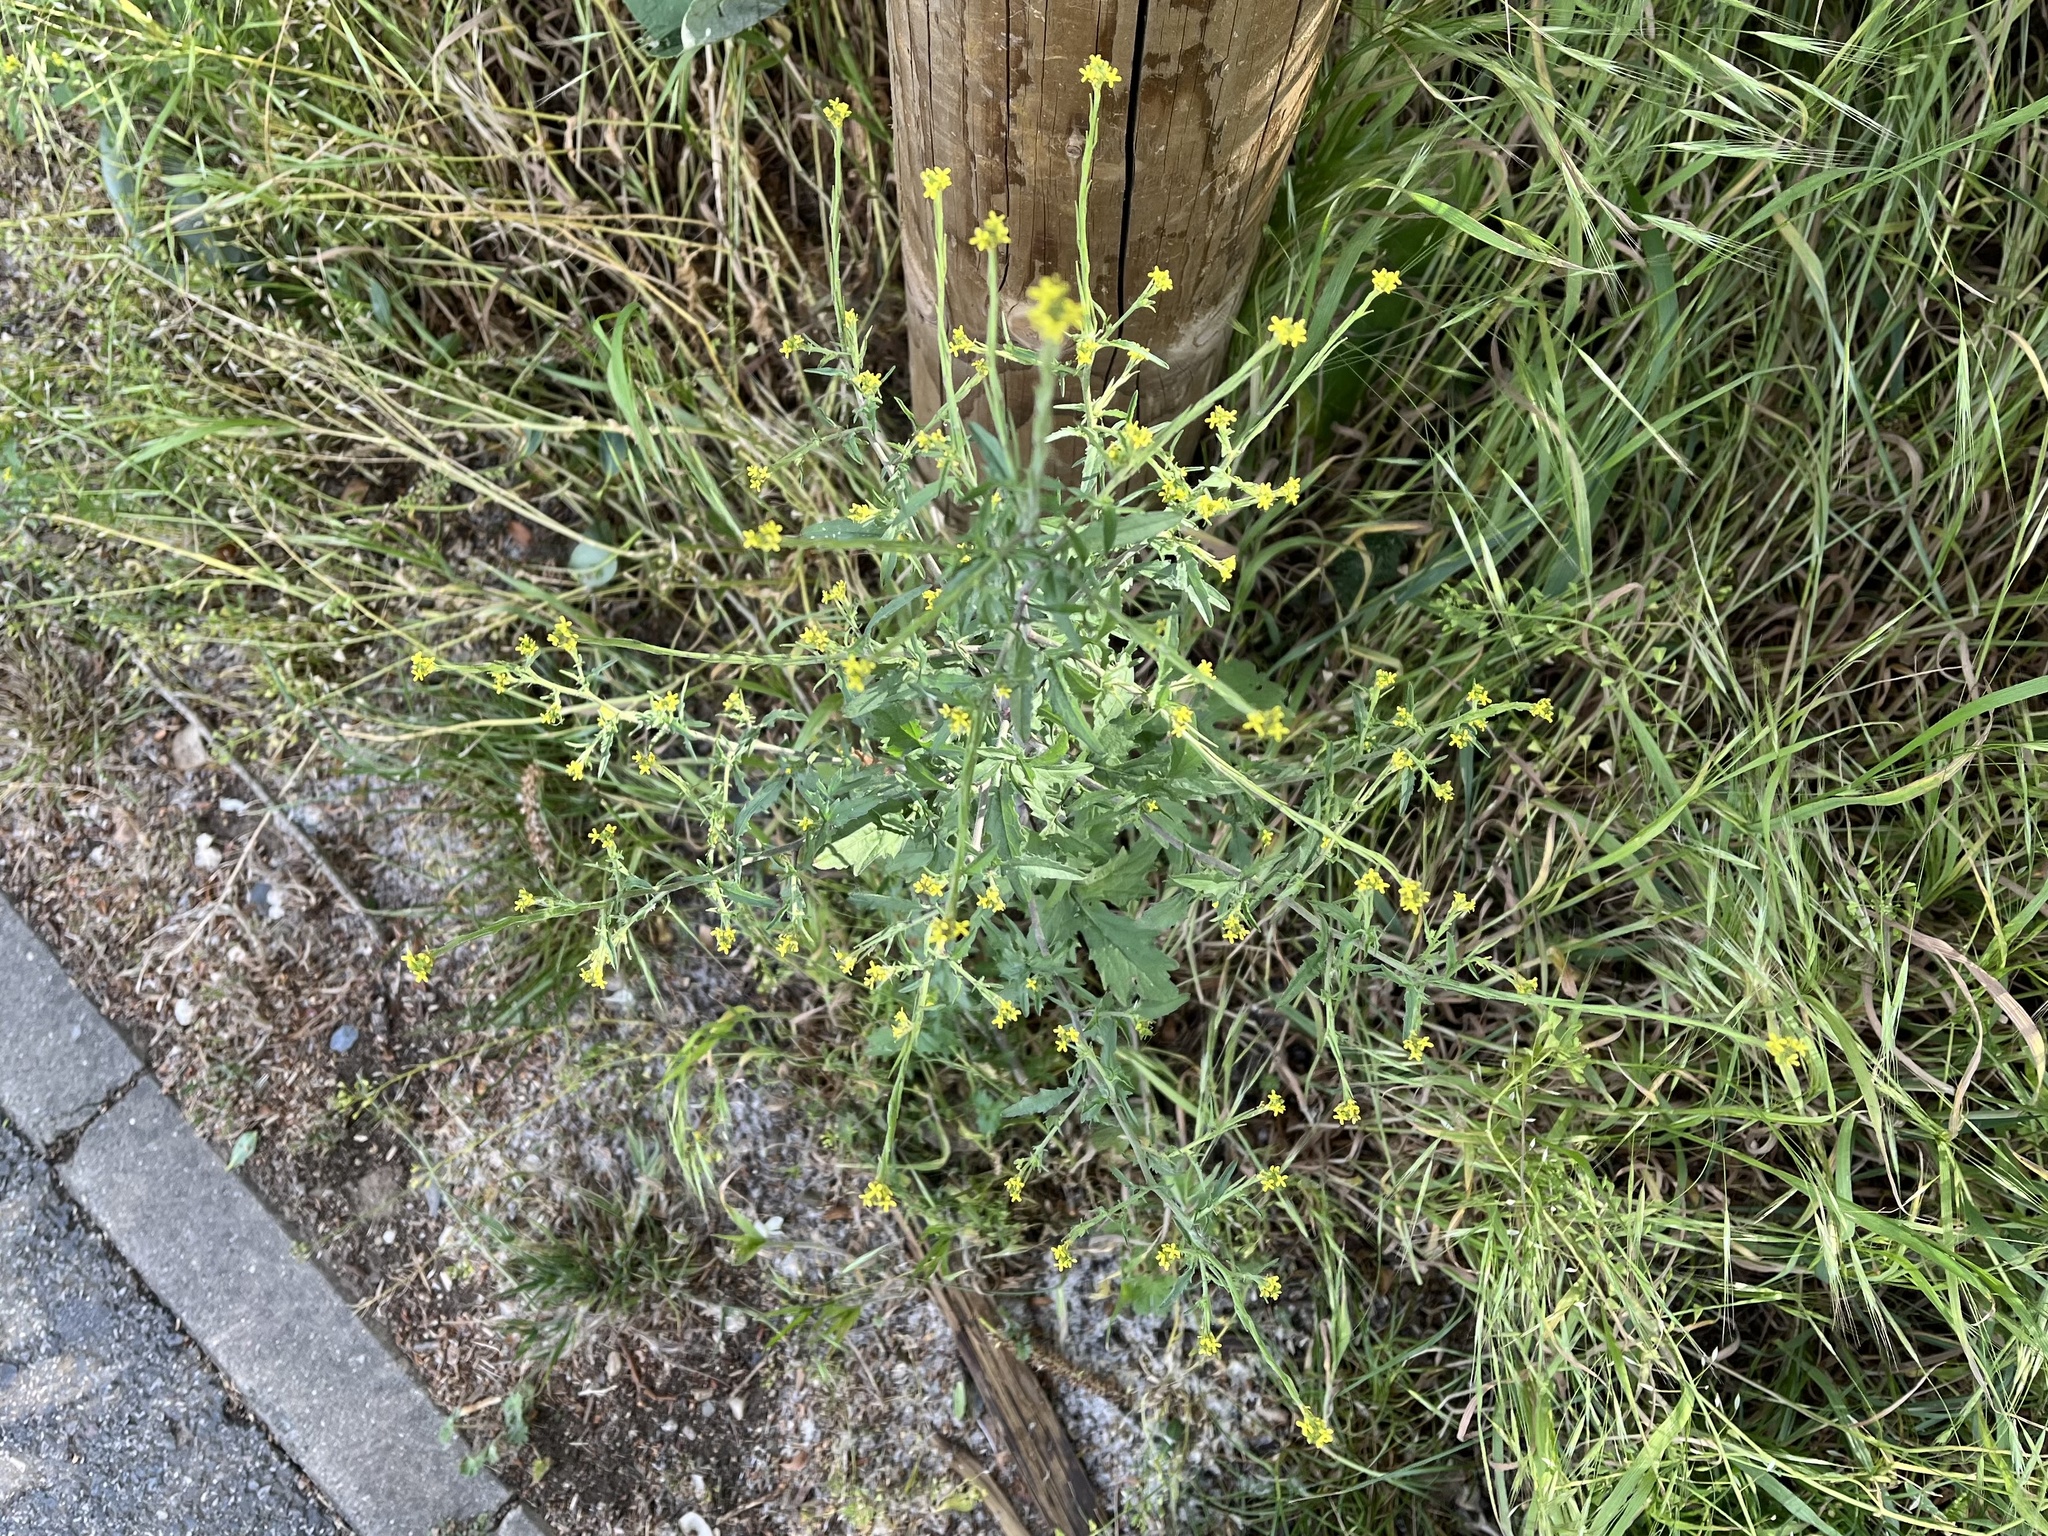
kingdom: Plantae
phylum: Tracheophyta
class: Magnoliopsida
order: Brassicales
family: Brassicaceae
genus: Sisymbrium
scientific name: Sisymbrium officinale
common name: Hedge mustard
